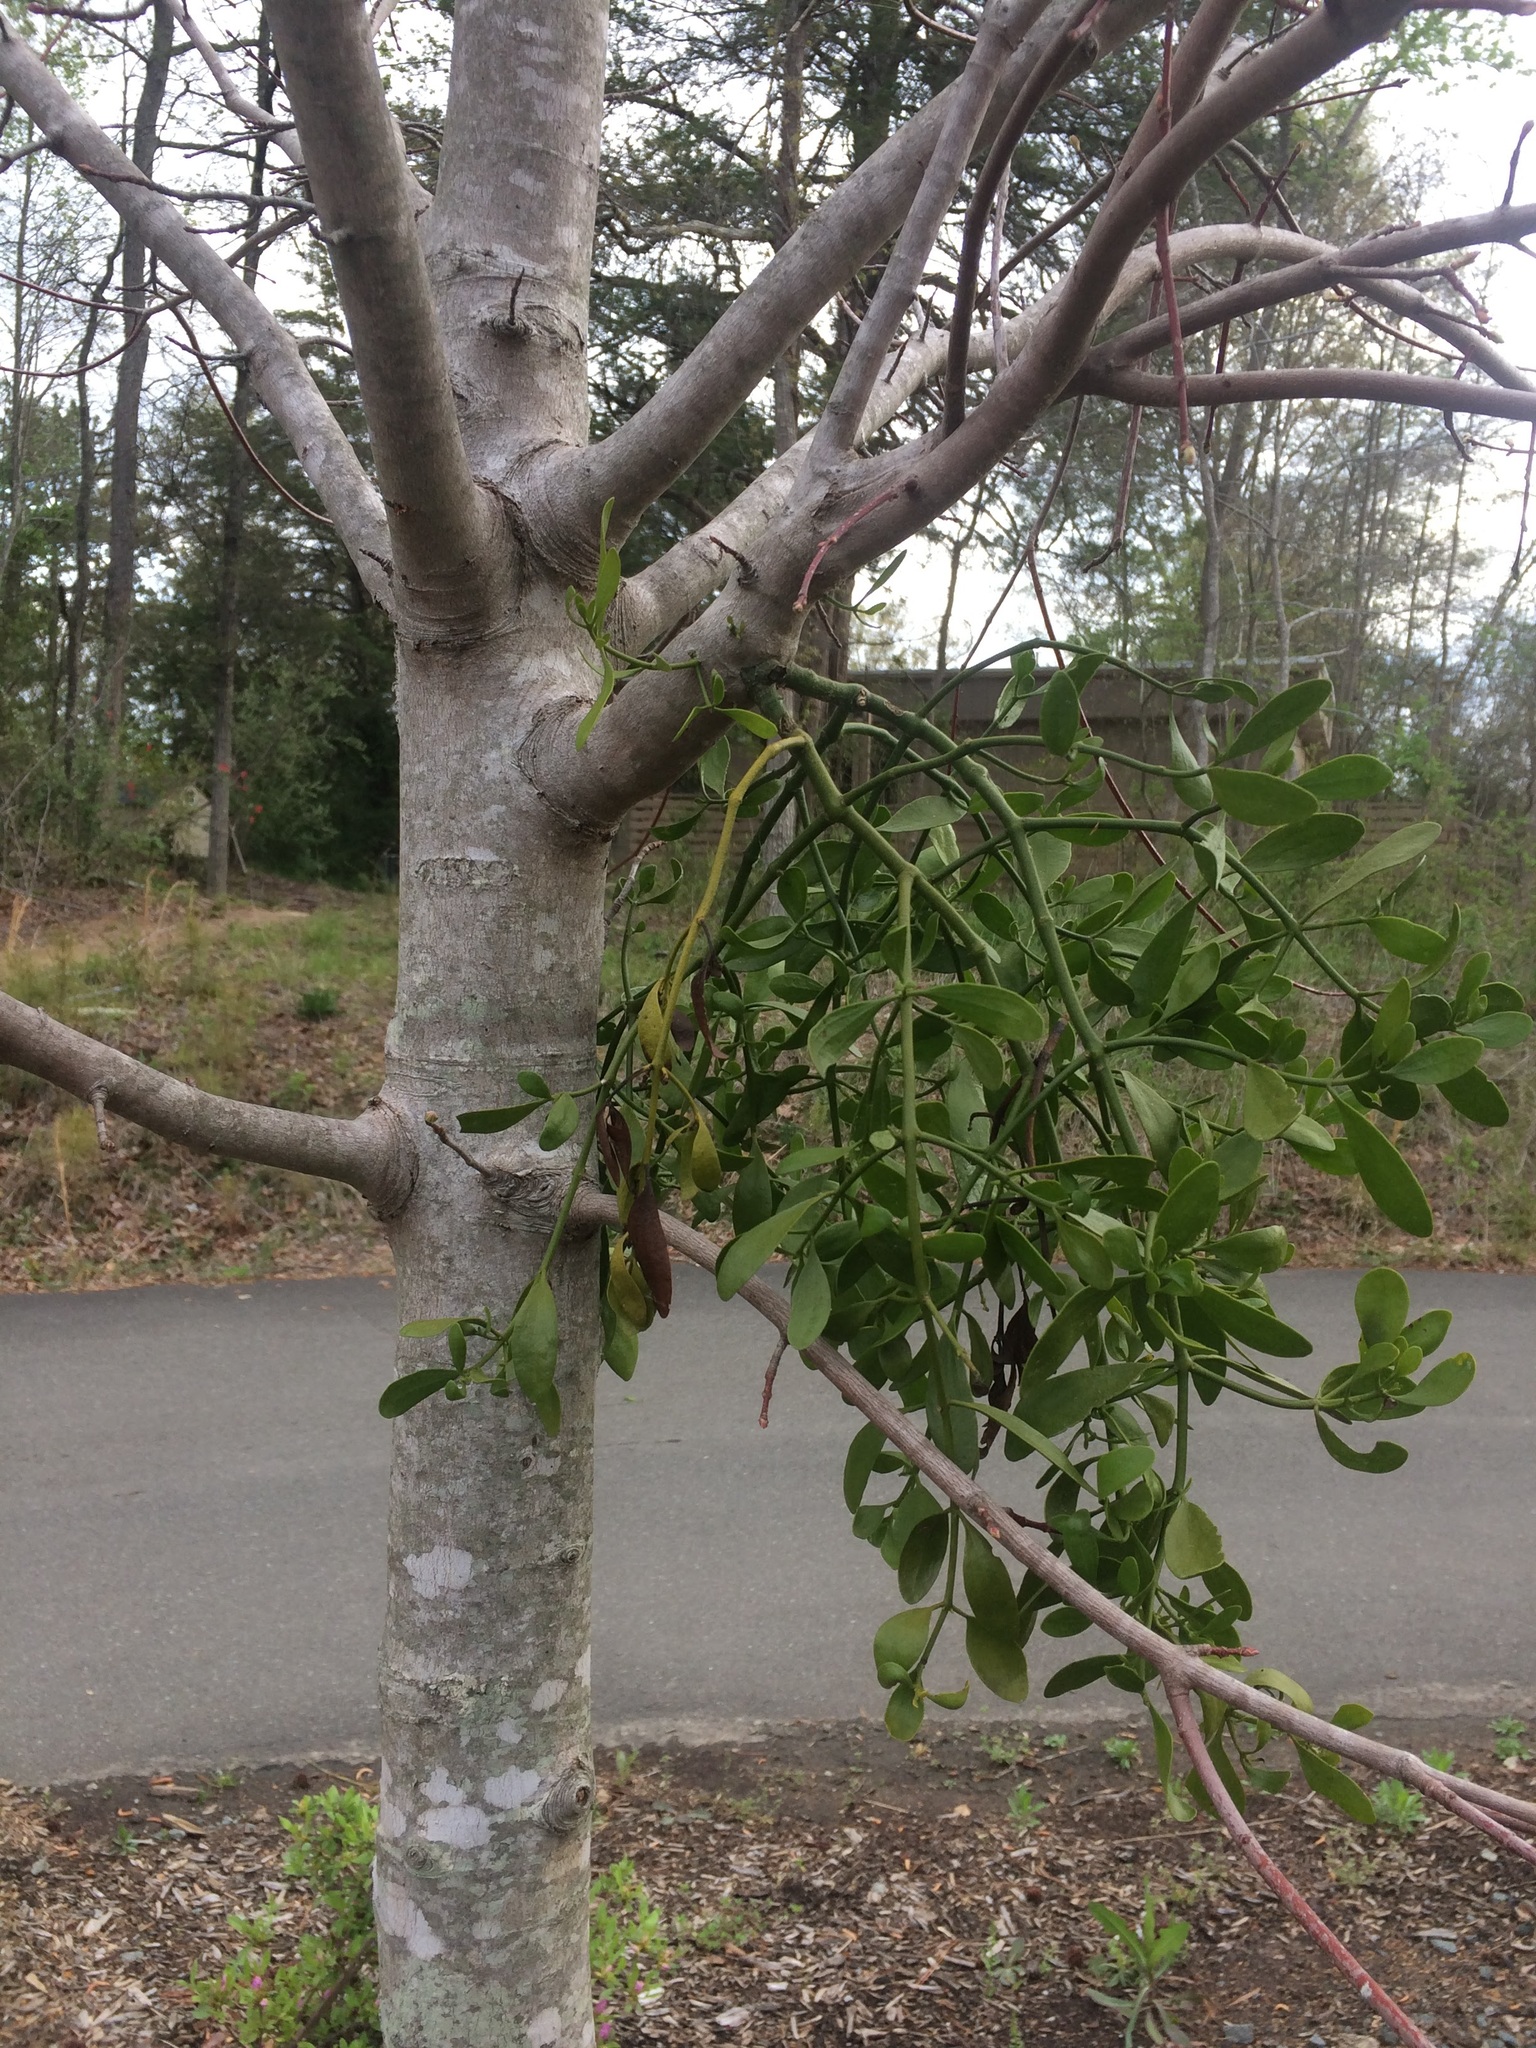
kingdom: Plantae
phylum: Tracheophyta
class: Magnoliopsida
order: Santalales
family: Viscaceae
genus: Phoradendron
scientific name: Phoradendron leucarpum
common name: Pacific mistletoe
